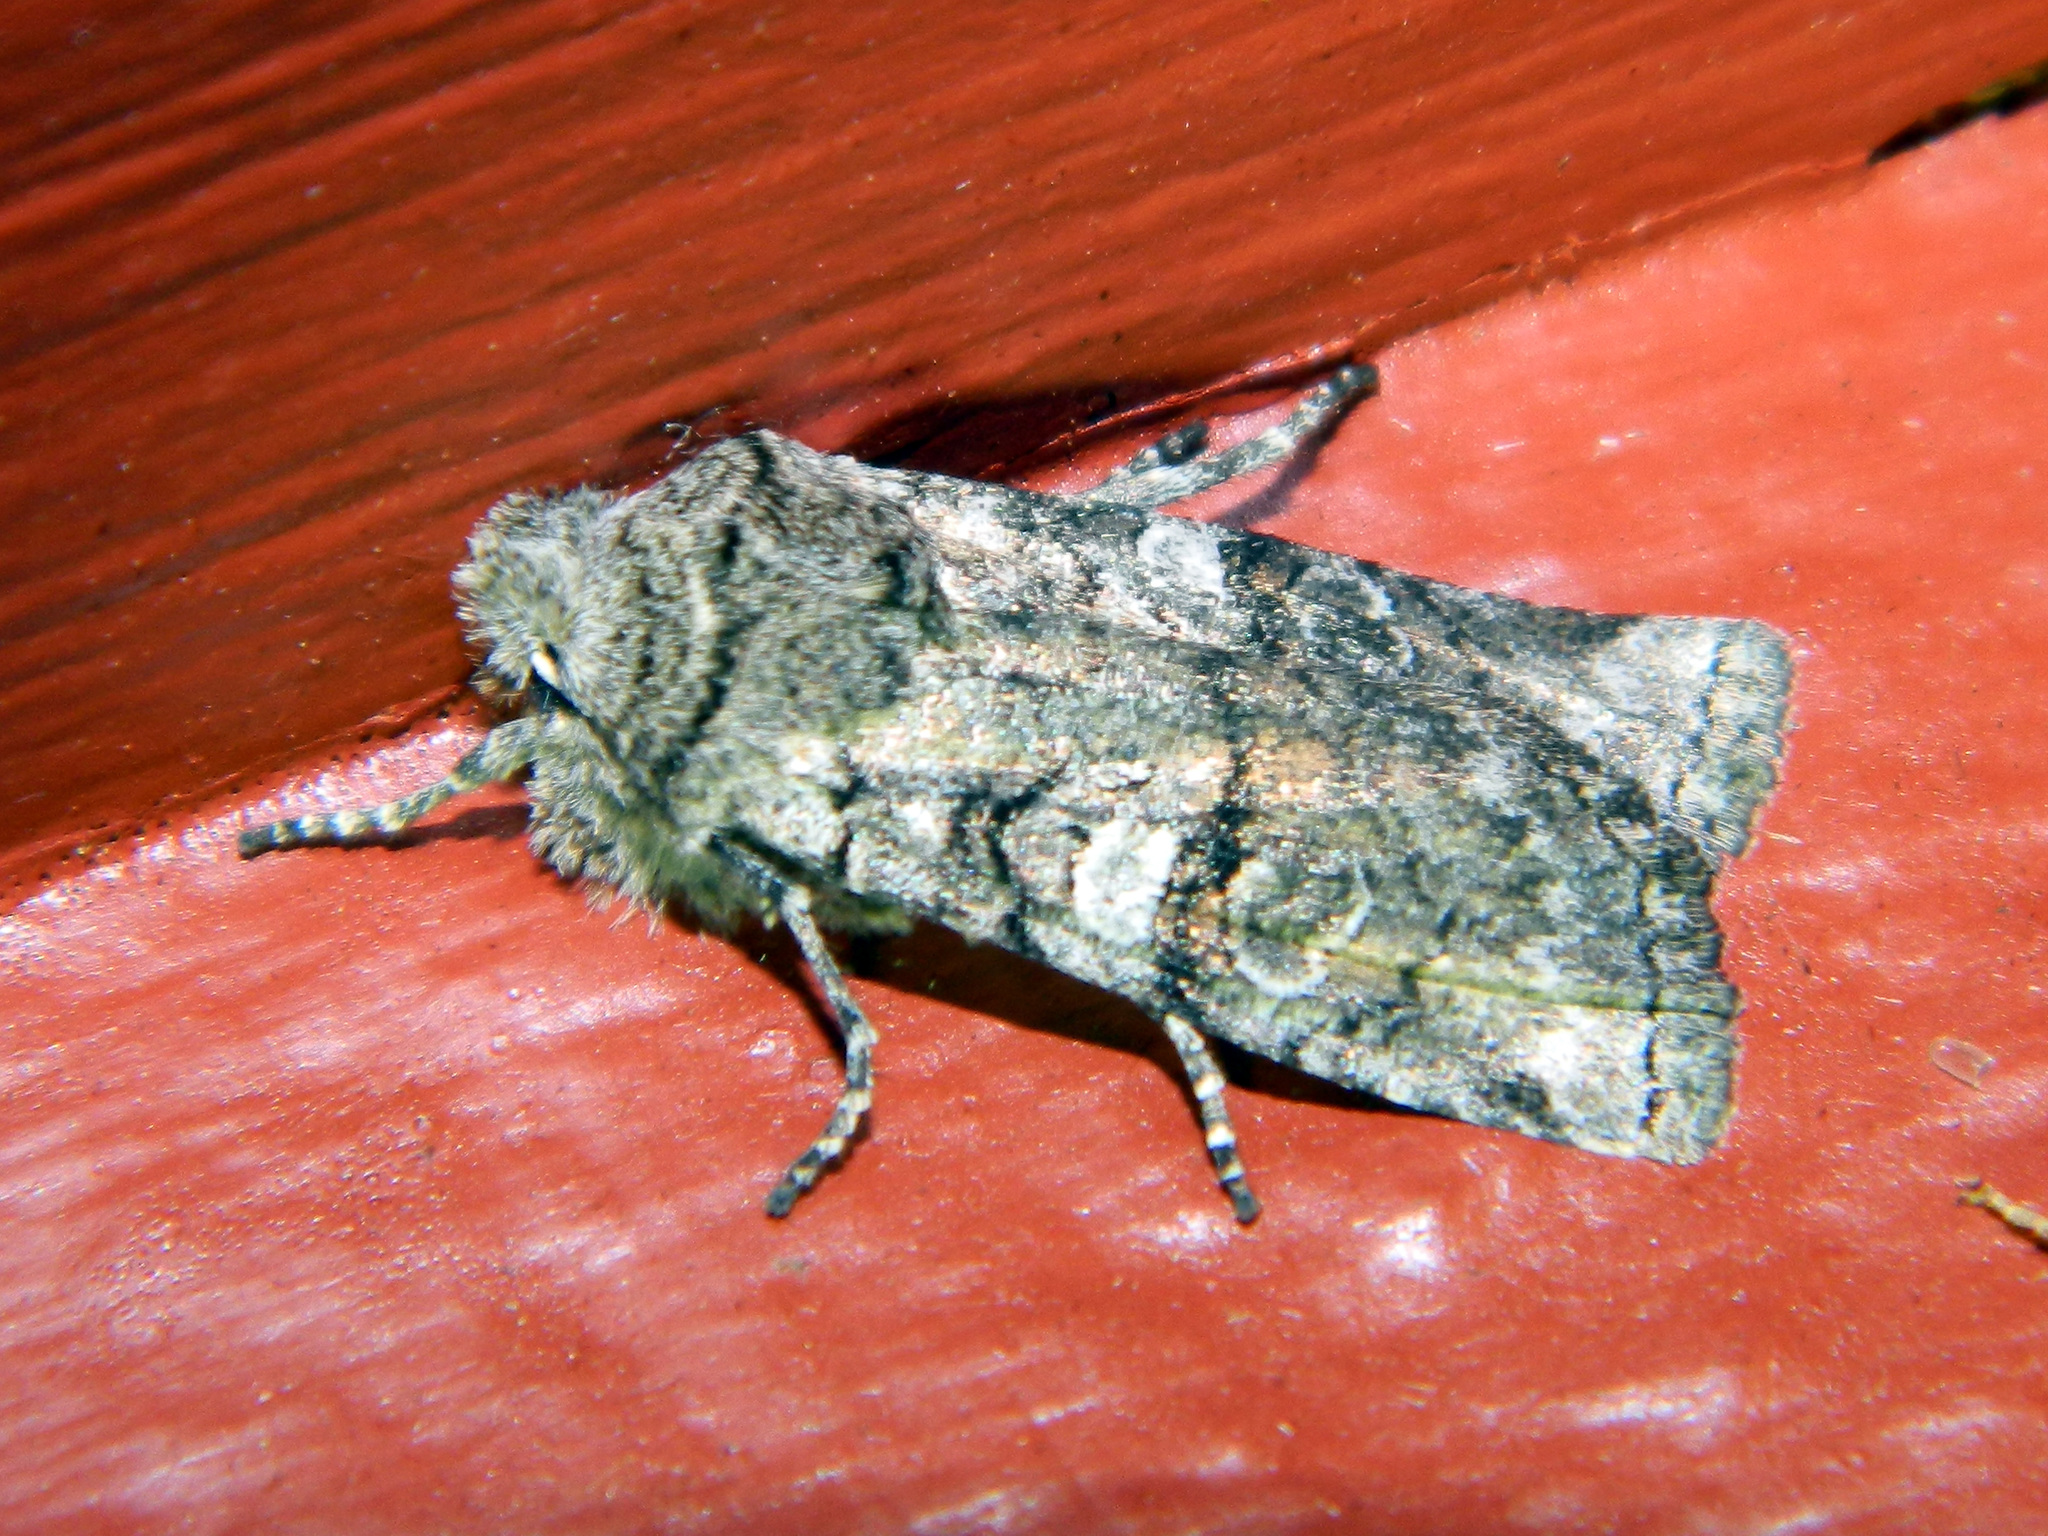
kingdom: Animalia
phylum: Arthropoda
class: Insecta
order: Lepidoptera
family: Noctuidae
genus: Litholomia
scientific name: Litholomia napaea
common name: False pinion moth
